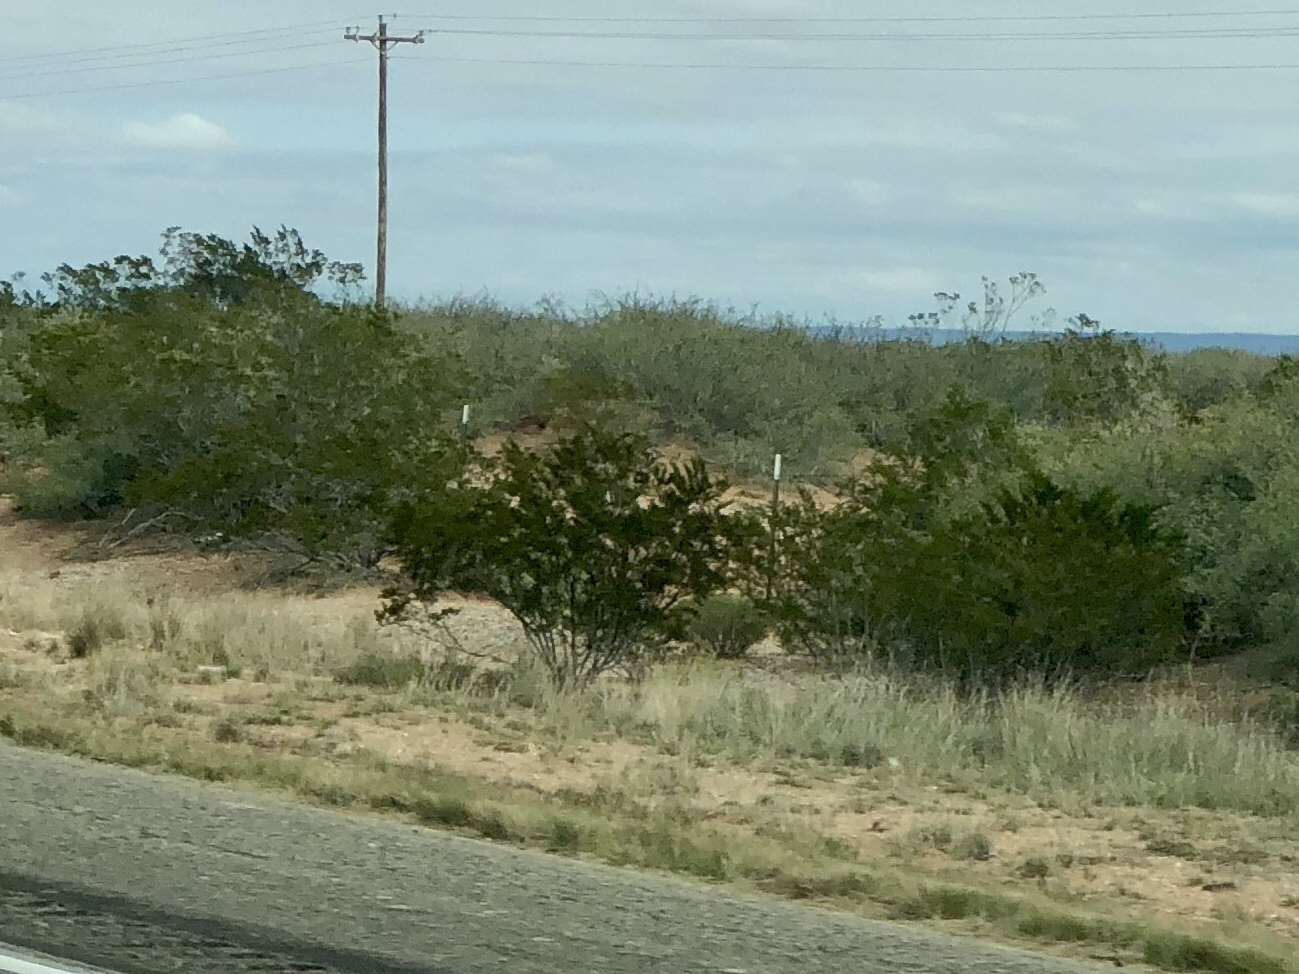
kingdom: Plantae
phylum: Tracheophyta
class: Magnoliopsida
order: Zygophyllales
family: Zygophyllaceae
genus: Larrea
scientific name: Larrea tridentata
